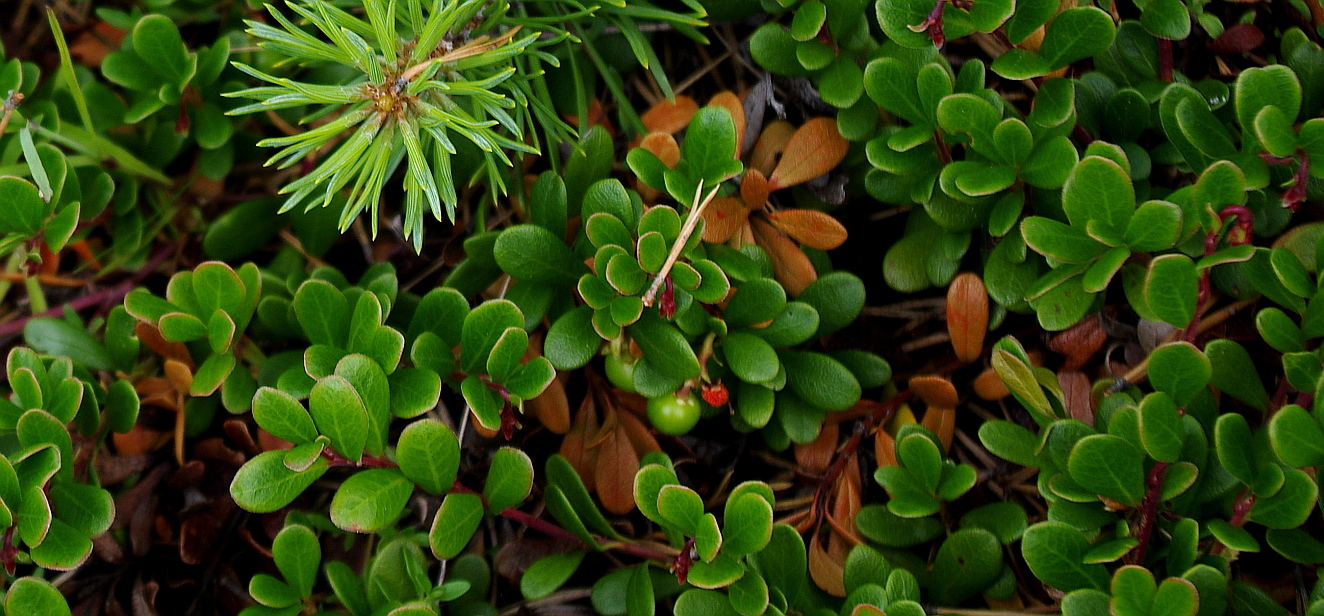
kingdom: Plantae
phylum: Tracheophyta
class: Magnoliopsida
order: Ericales
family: Ericaceae
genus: Arctostaphylos
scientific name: Arctostaphylos uva-ursi
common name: Bearberry
